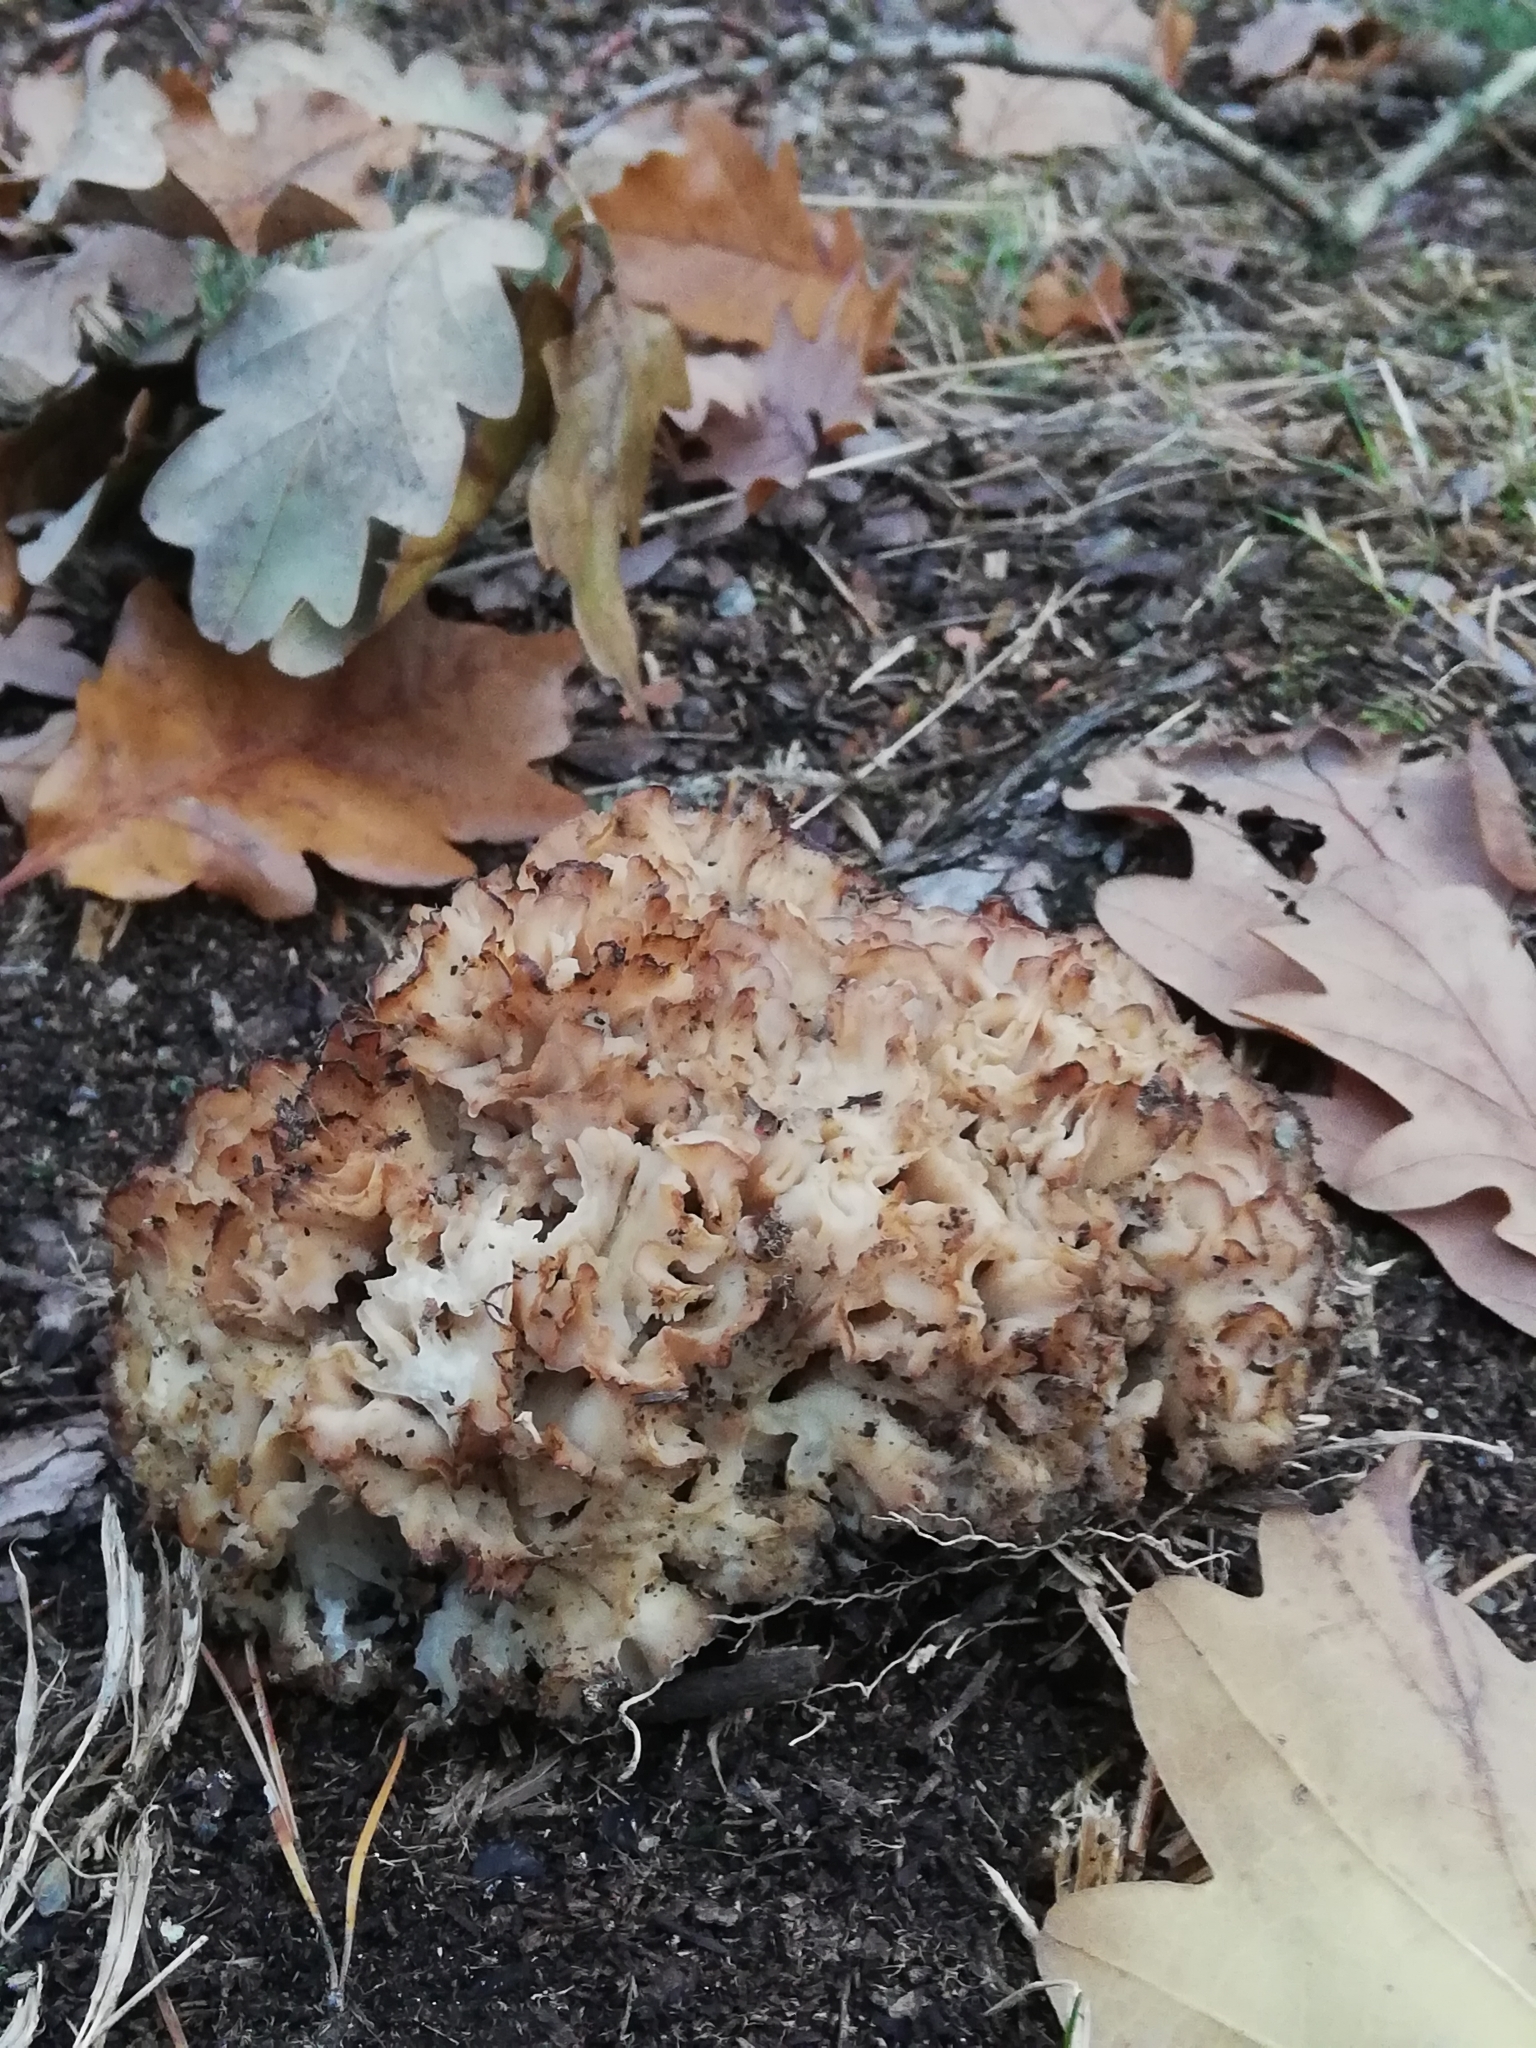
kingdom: Fungi
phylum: Basidiomycota
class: Agaricomycetes
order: Polyporales
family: Sparassidaceae
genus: Sparassis
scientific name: Sparassis crispa
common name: Brain fungus
